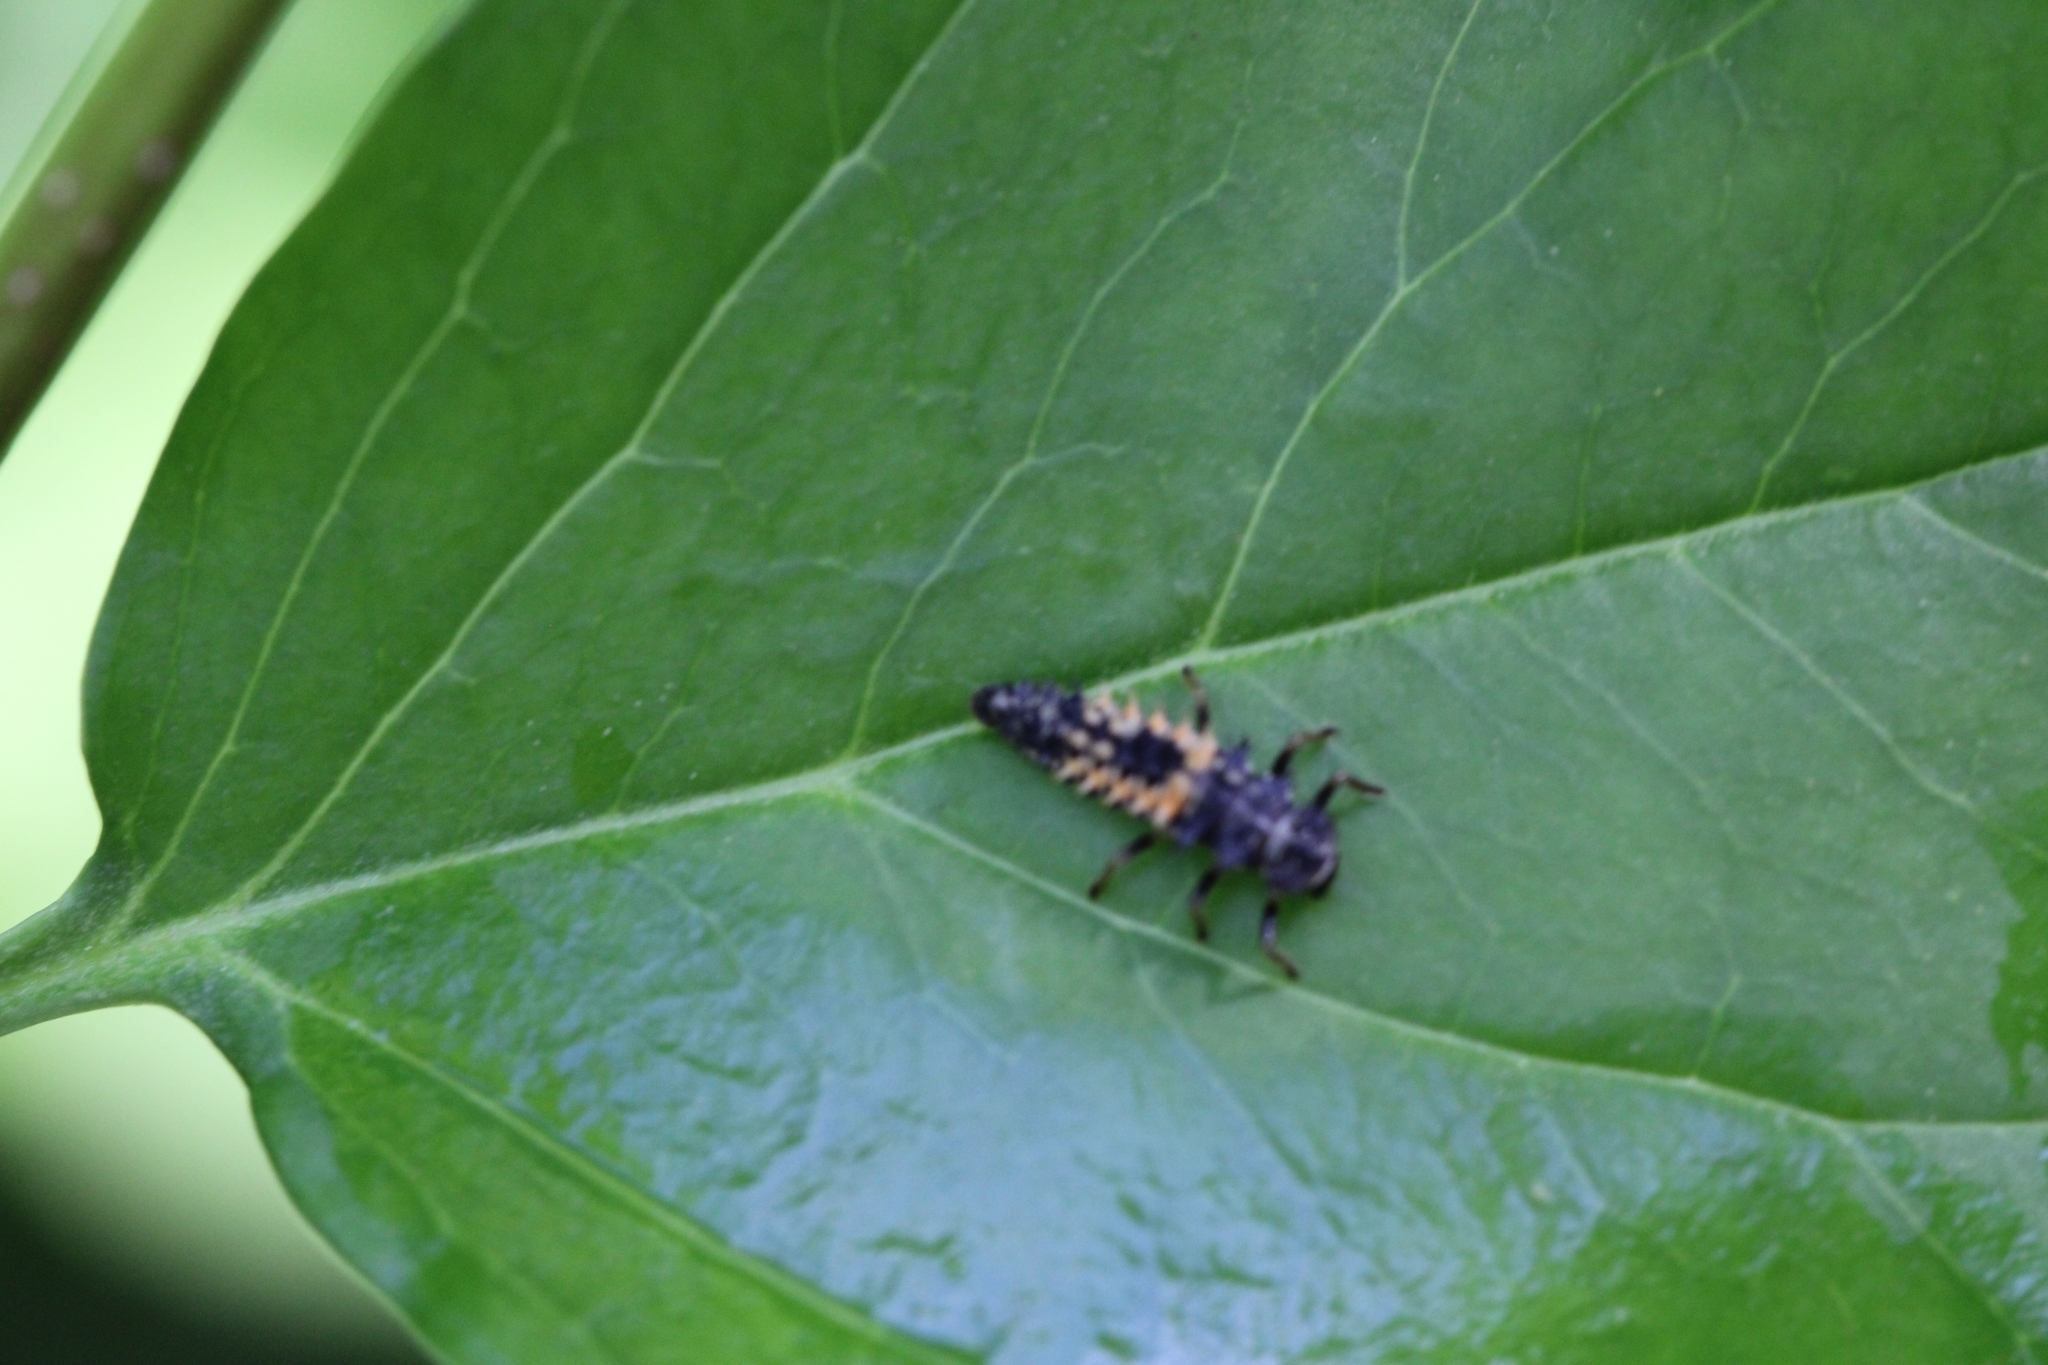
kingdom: Animalia
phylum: Arthropoda
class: Insecta
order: Coleoptera
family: Coccinellidae
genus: Harmonia
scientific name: Harmonia axyridis
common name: Harlequin ladybird
